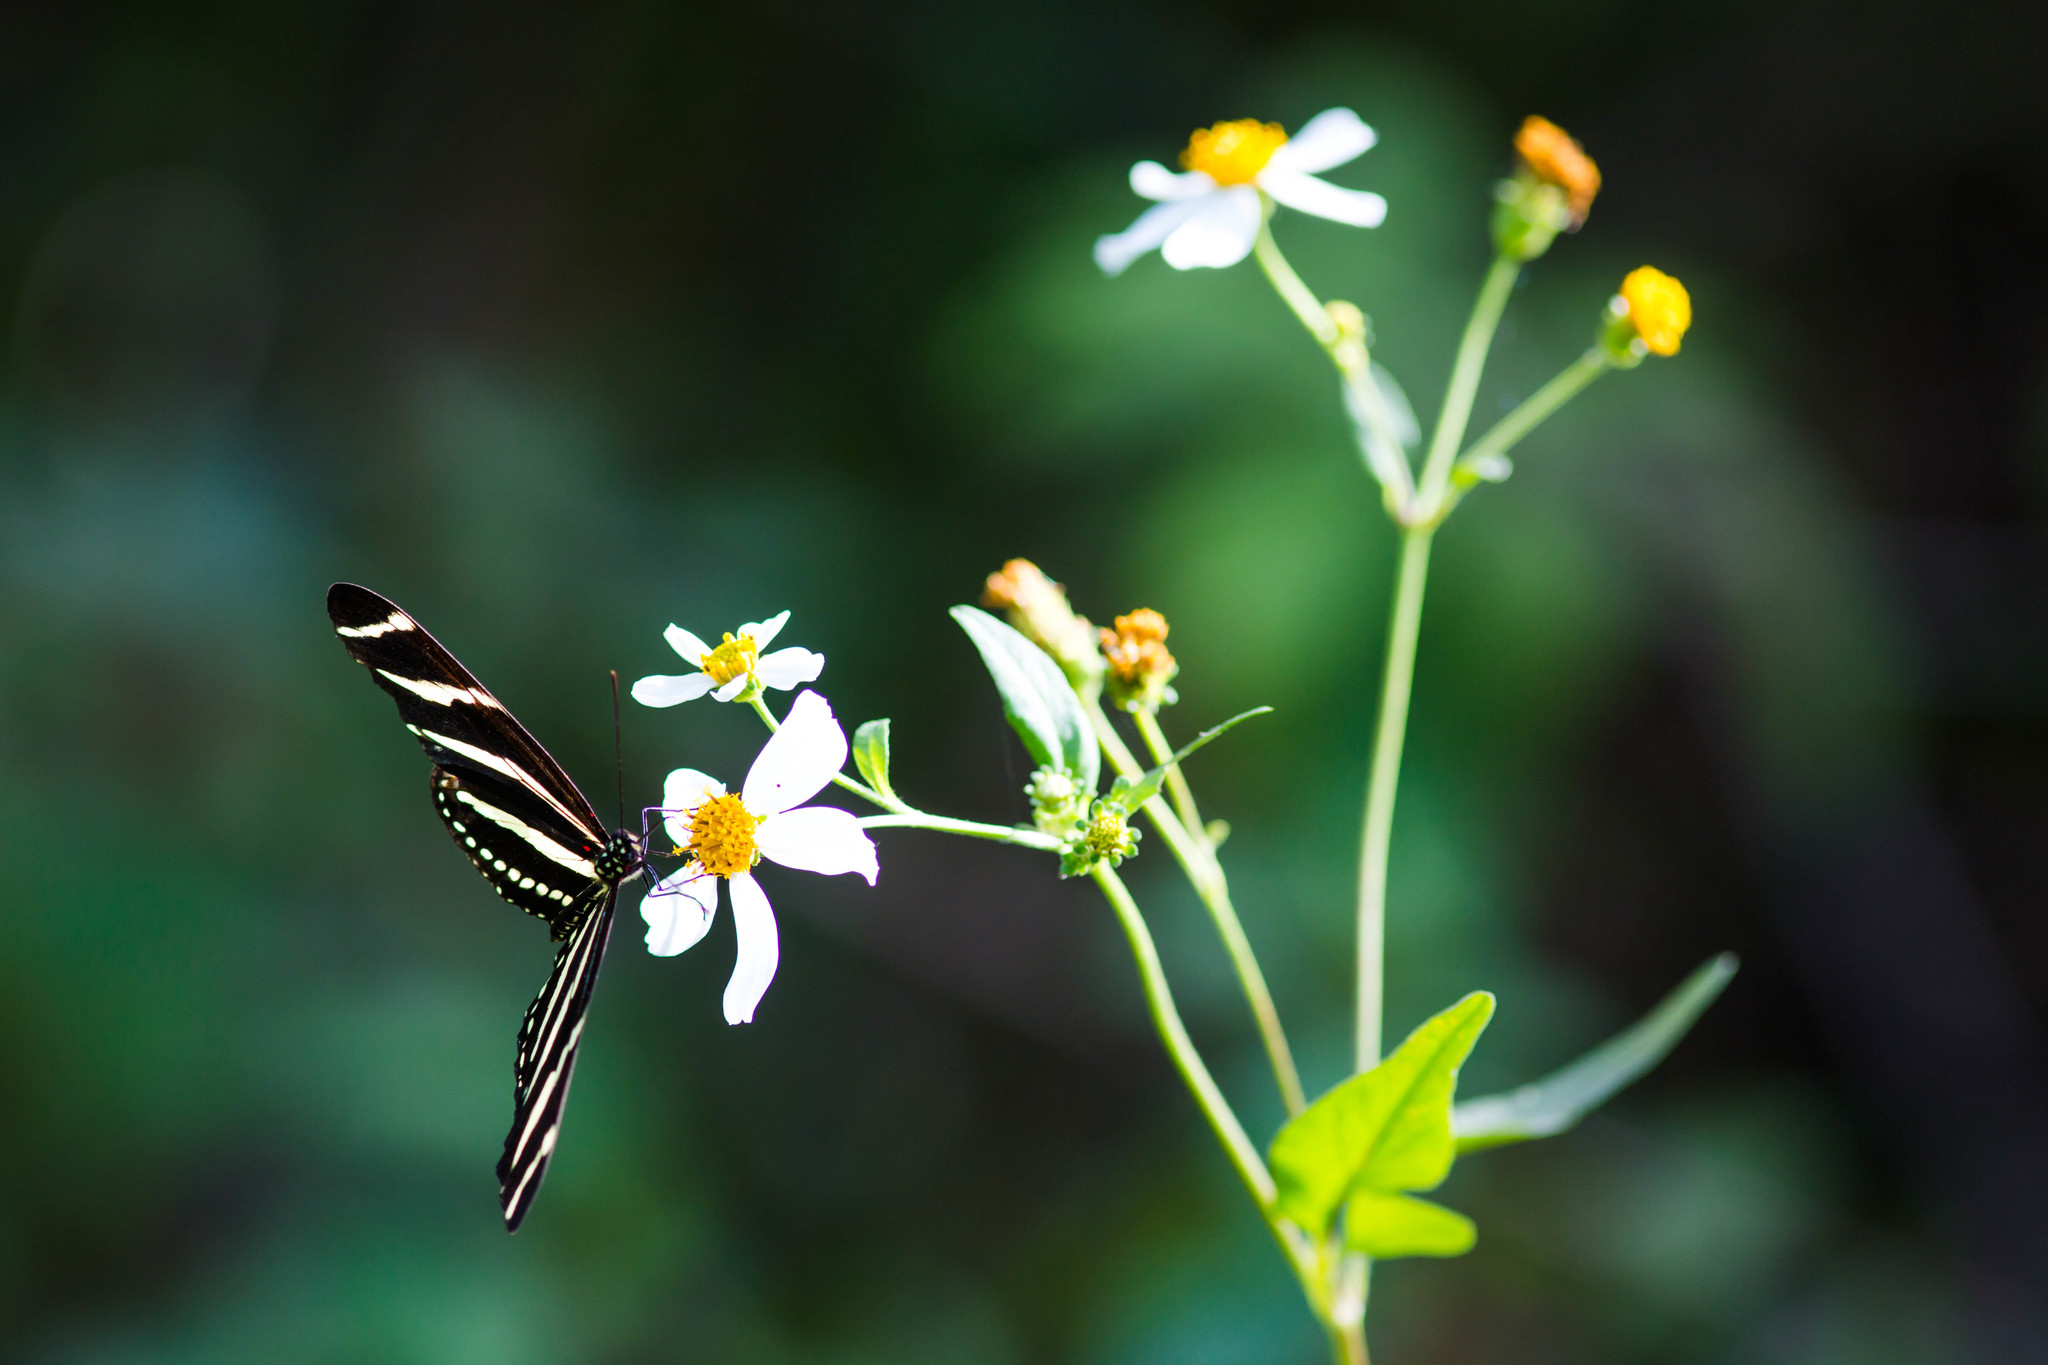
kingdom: Animalia
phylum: Arthropoda
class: Insecta
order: Lepidoptera
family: Nymphalidae
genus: Heliconius
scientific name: Heliconius charithonia
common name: Zebra long wing
